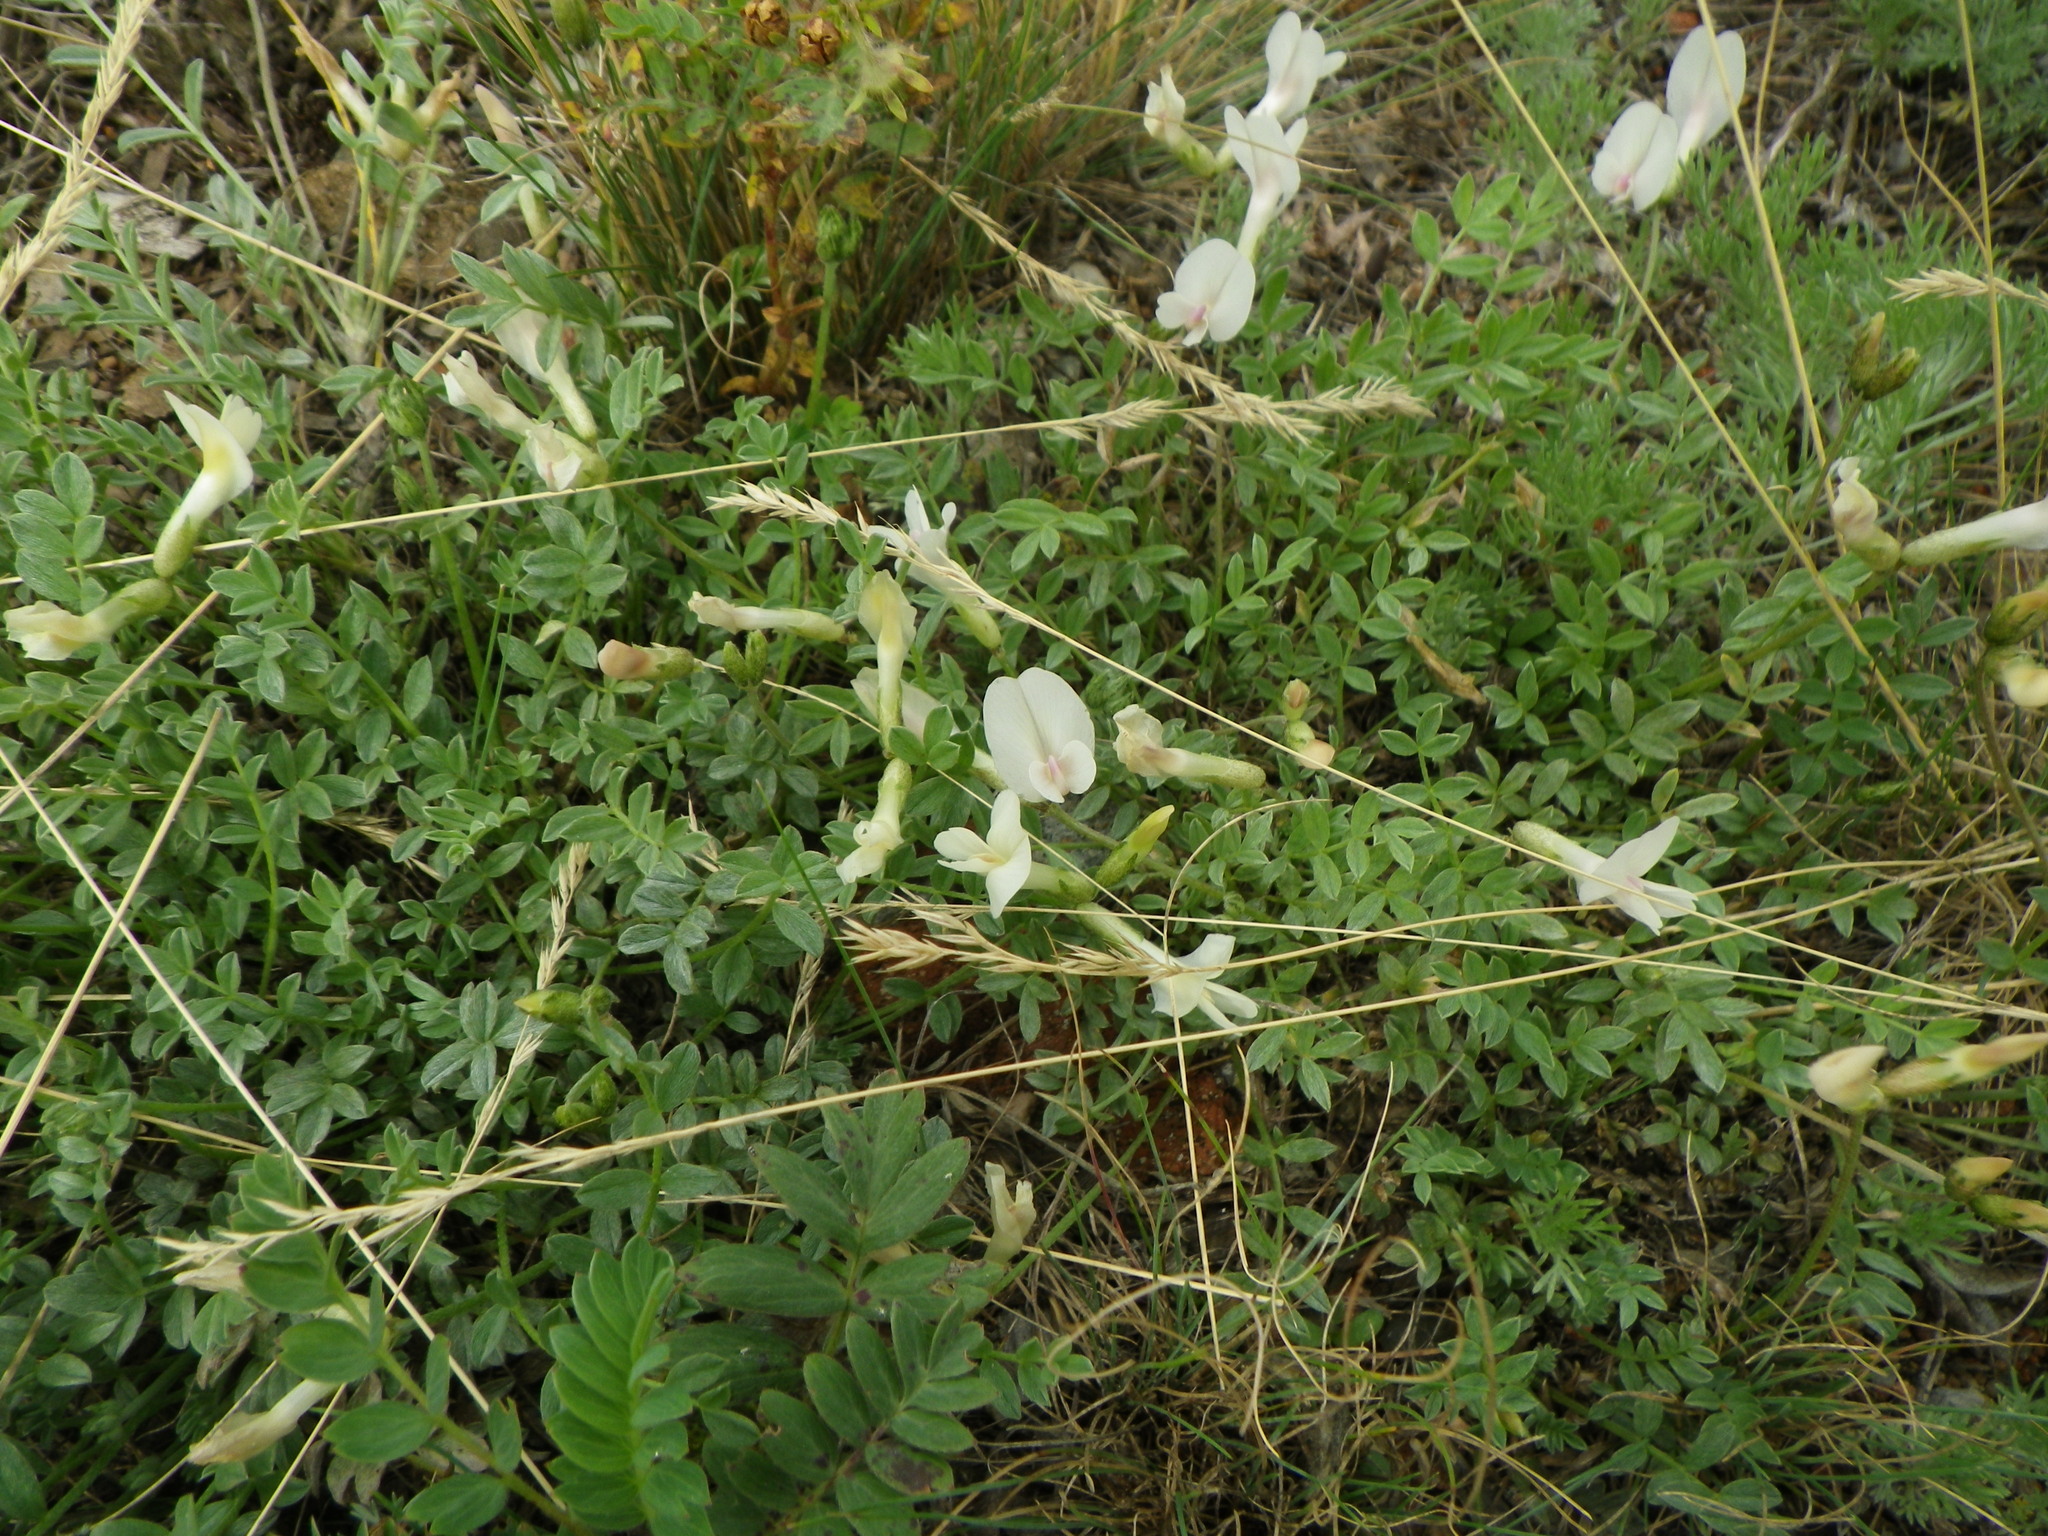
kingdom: Plantae
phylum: Tracheophyta
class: Magnoliopsida
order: Fabales
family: Fabaceae
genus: Astragalus
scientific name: Astragalus depauperatus
